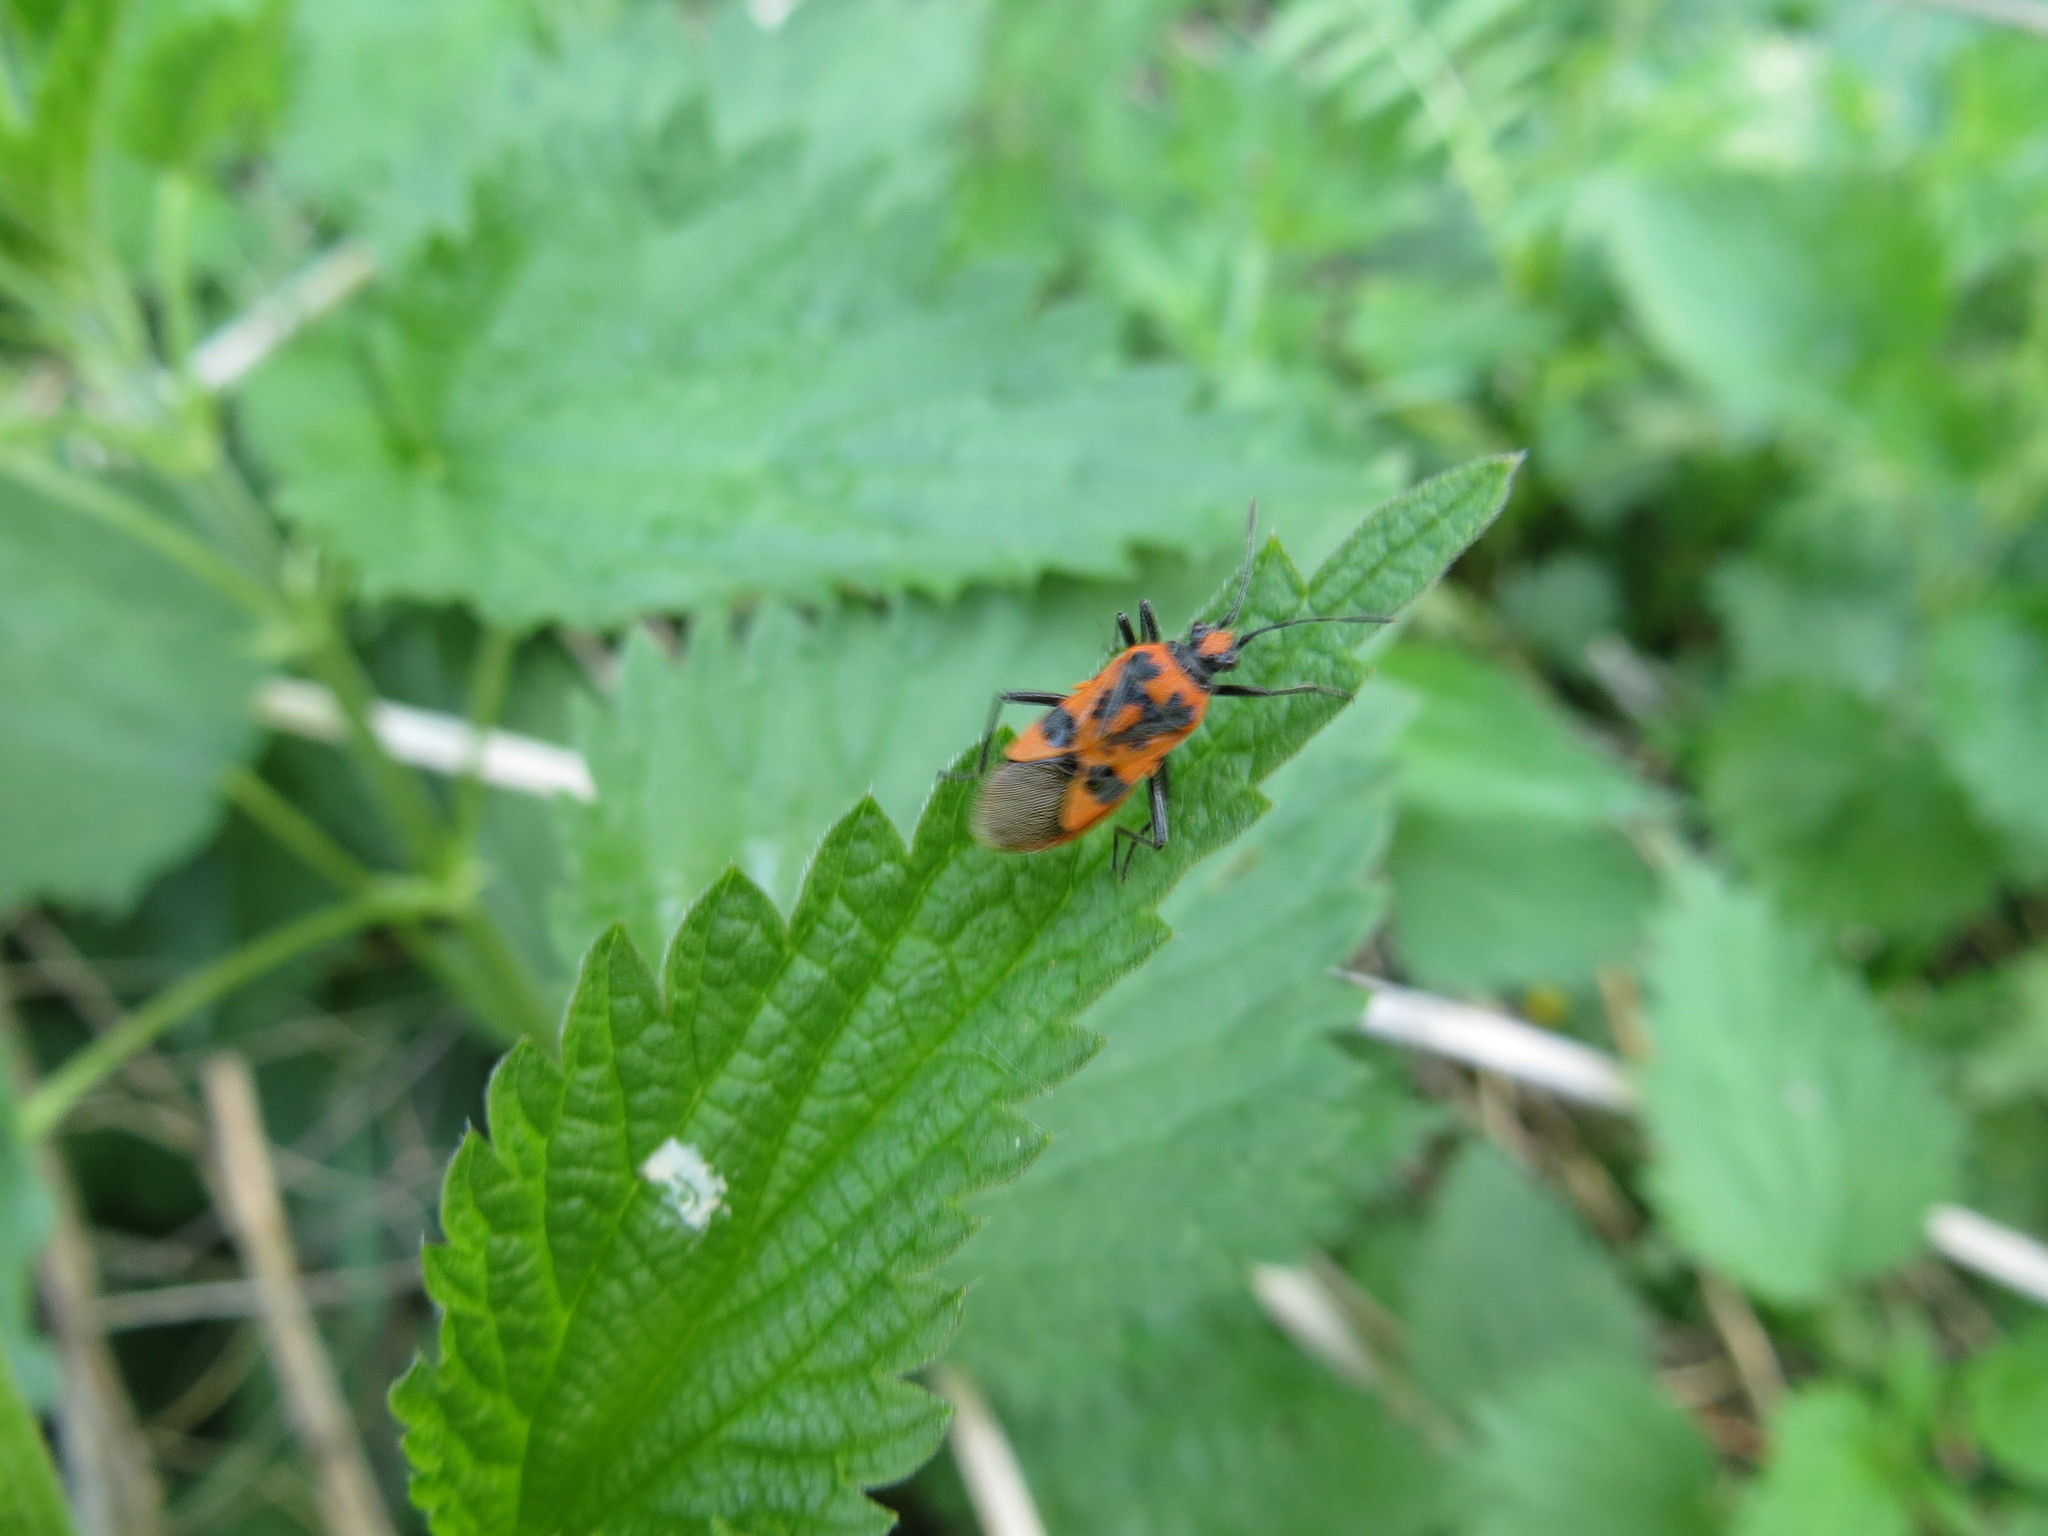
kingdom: Animalia
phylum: Arthropoda
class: Insecta
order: Hemiptera
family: Rhopalidae
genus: Corizus
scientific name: Corizus hyoscyami
